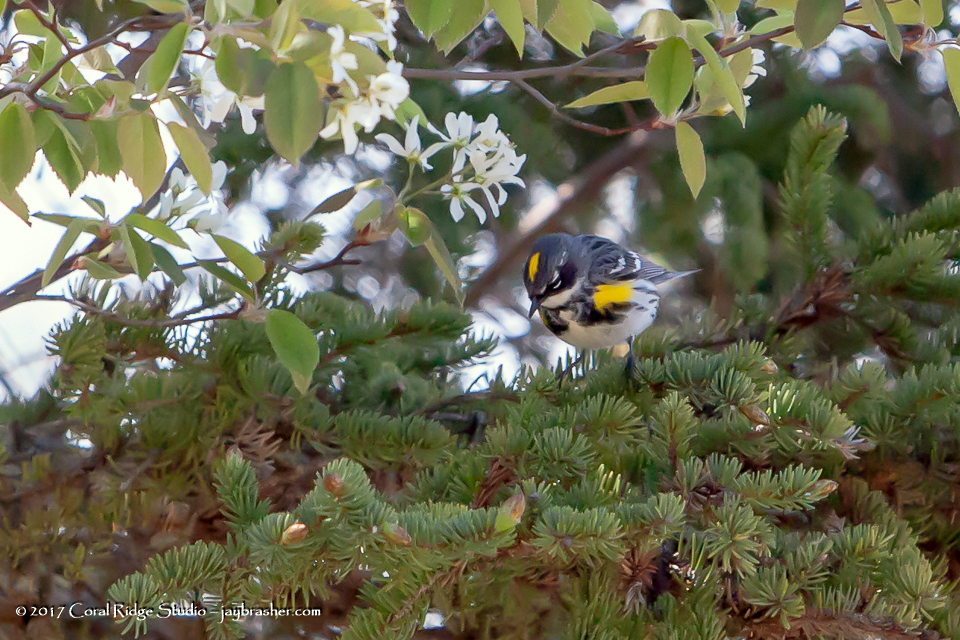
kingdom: Animalia
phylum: Chordata
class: Aves
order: Passeriformes
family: Parulidae
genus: Setophaga
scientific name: Setophaga coronata
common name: Myrtle warbler
